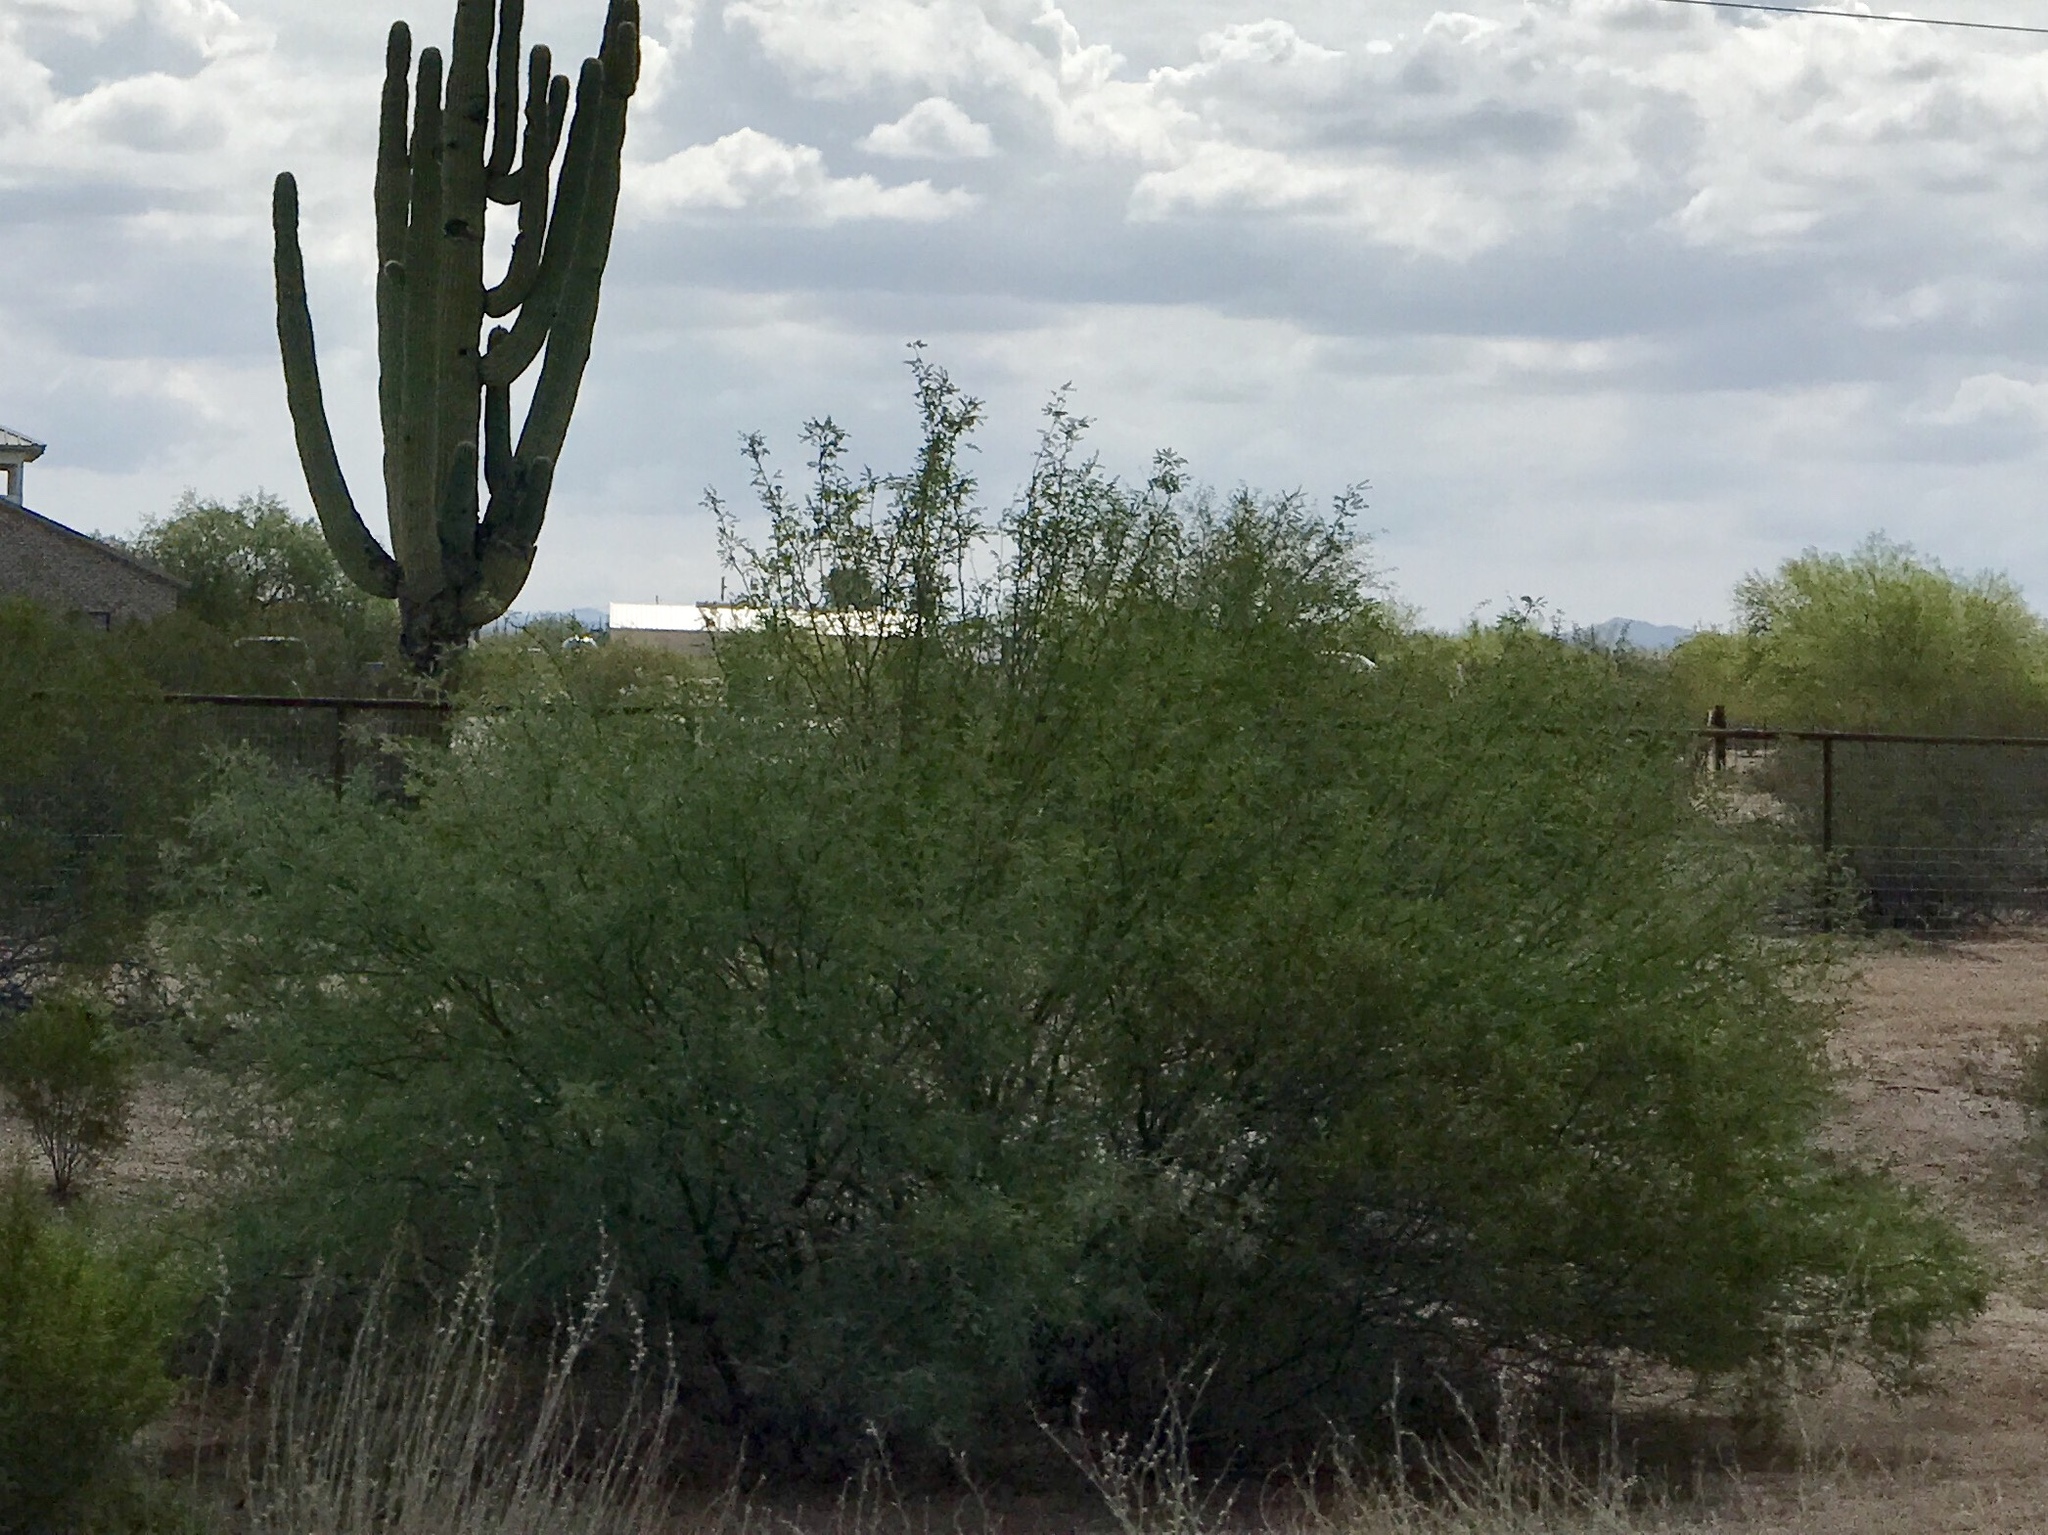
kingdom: Plantae
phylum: Tracheophyta
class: Magnoliopsida
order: Fabales
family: Fabaceae
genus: Prosopis
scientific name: Prosopis velutina
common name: Velvet mesquite
